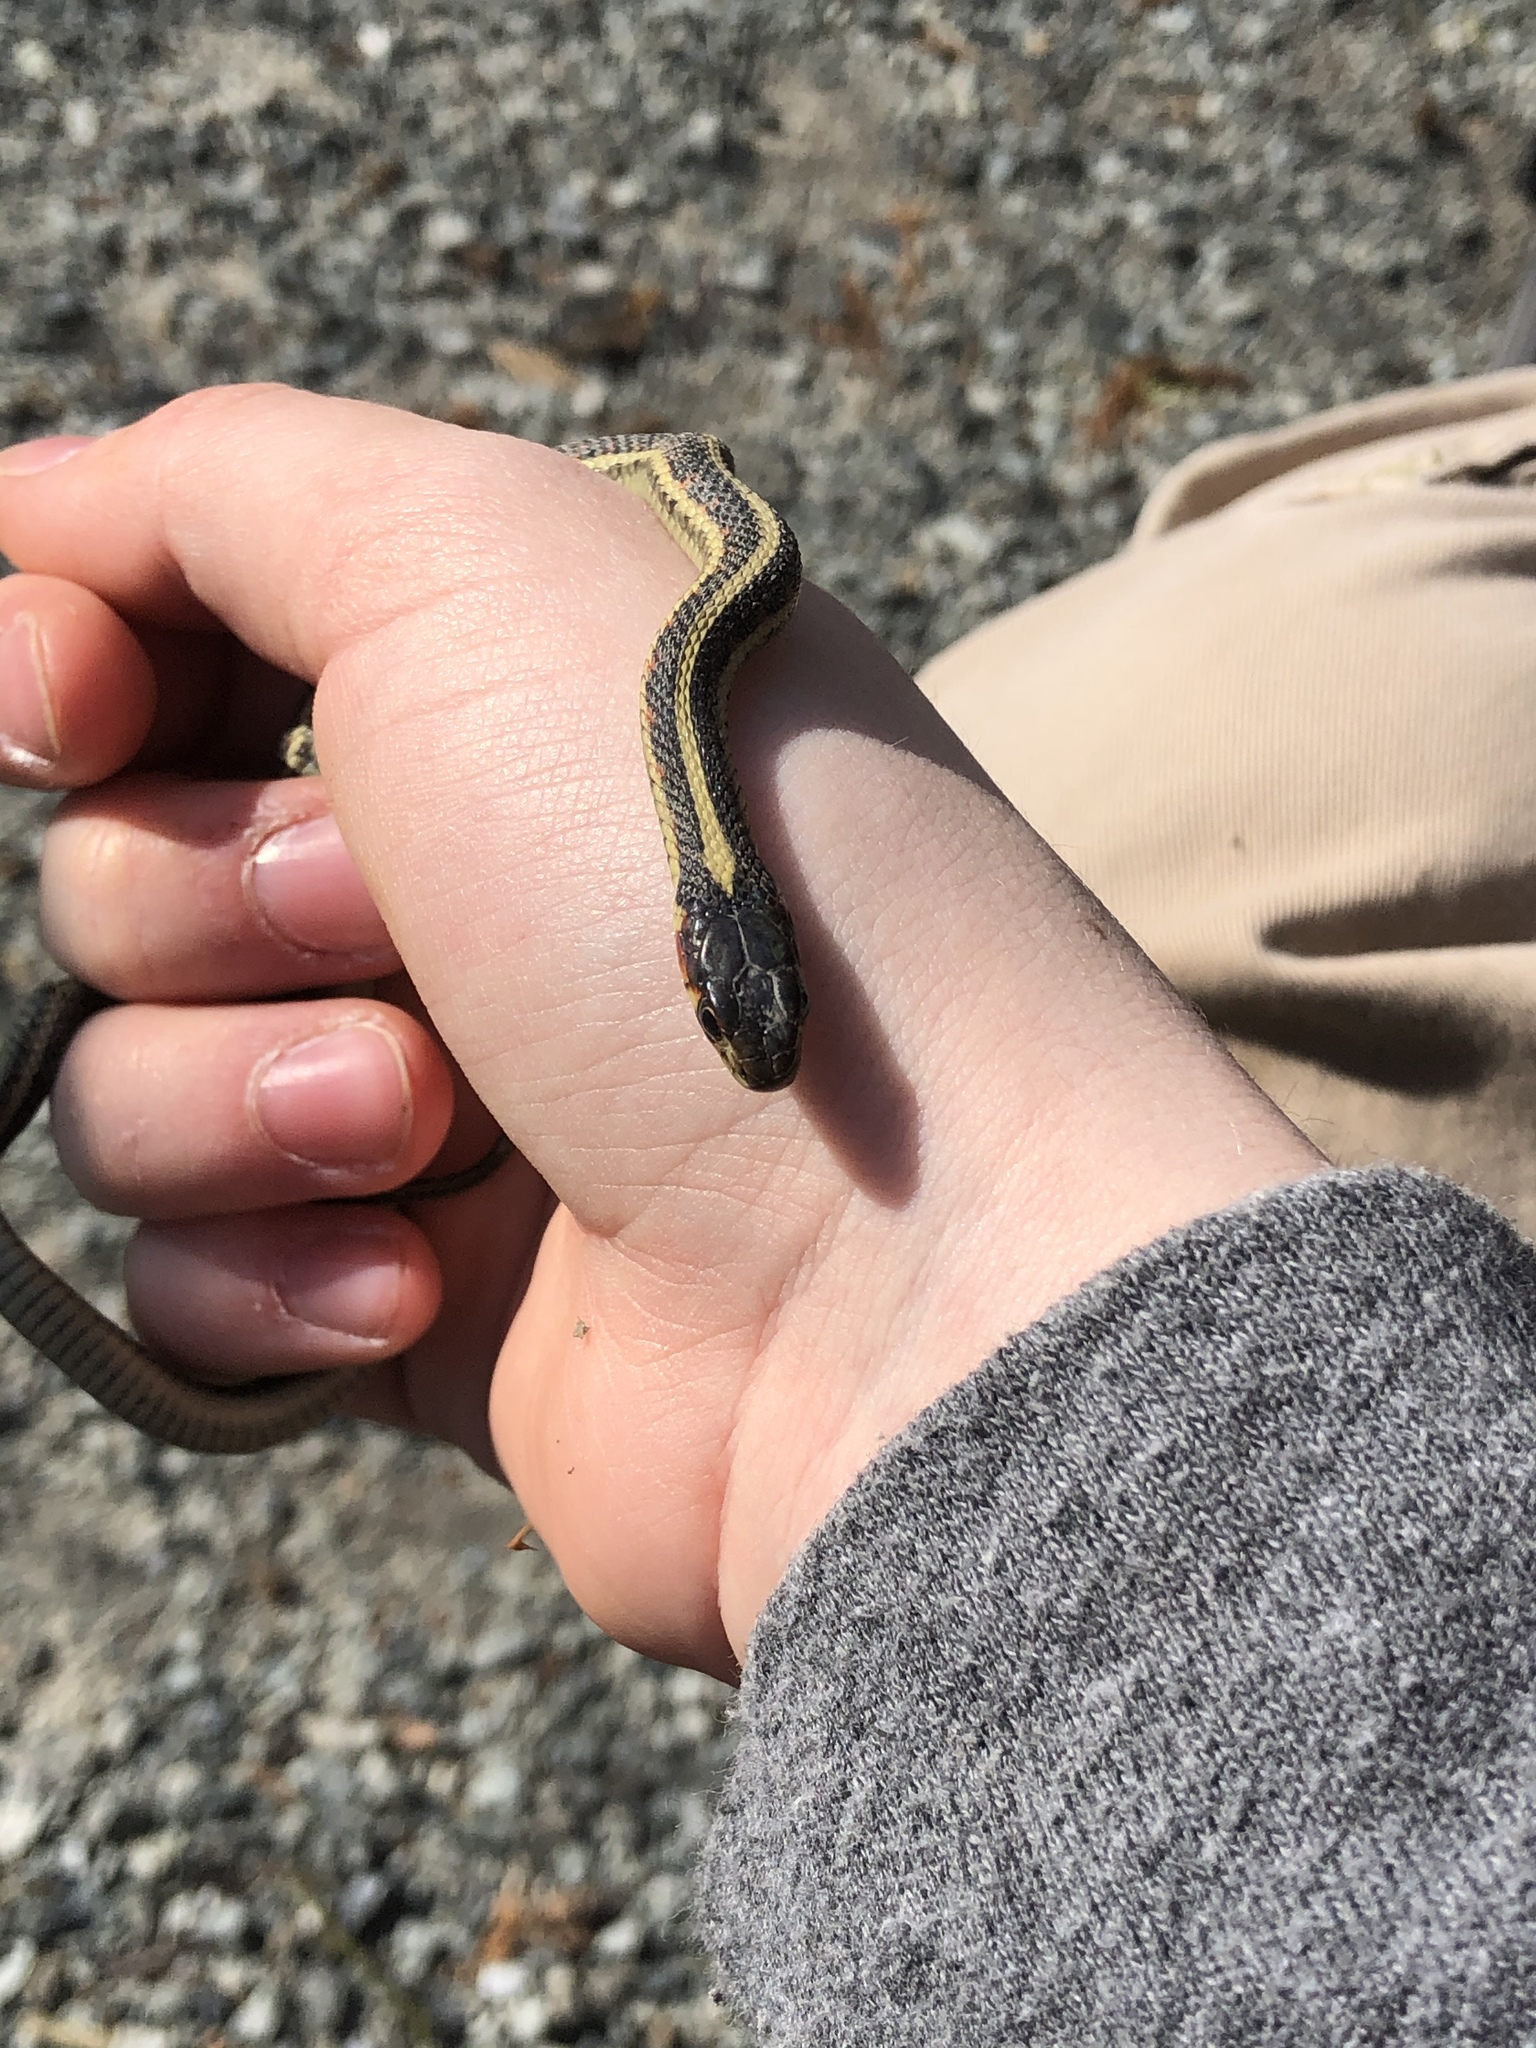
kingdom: Animalia
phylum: Chordata
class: Squamata
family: Colubridae
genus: Thamnophis
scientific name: Thamnophis sirtalis
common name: Common garter snake
